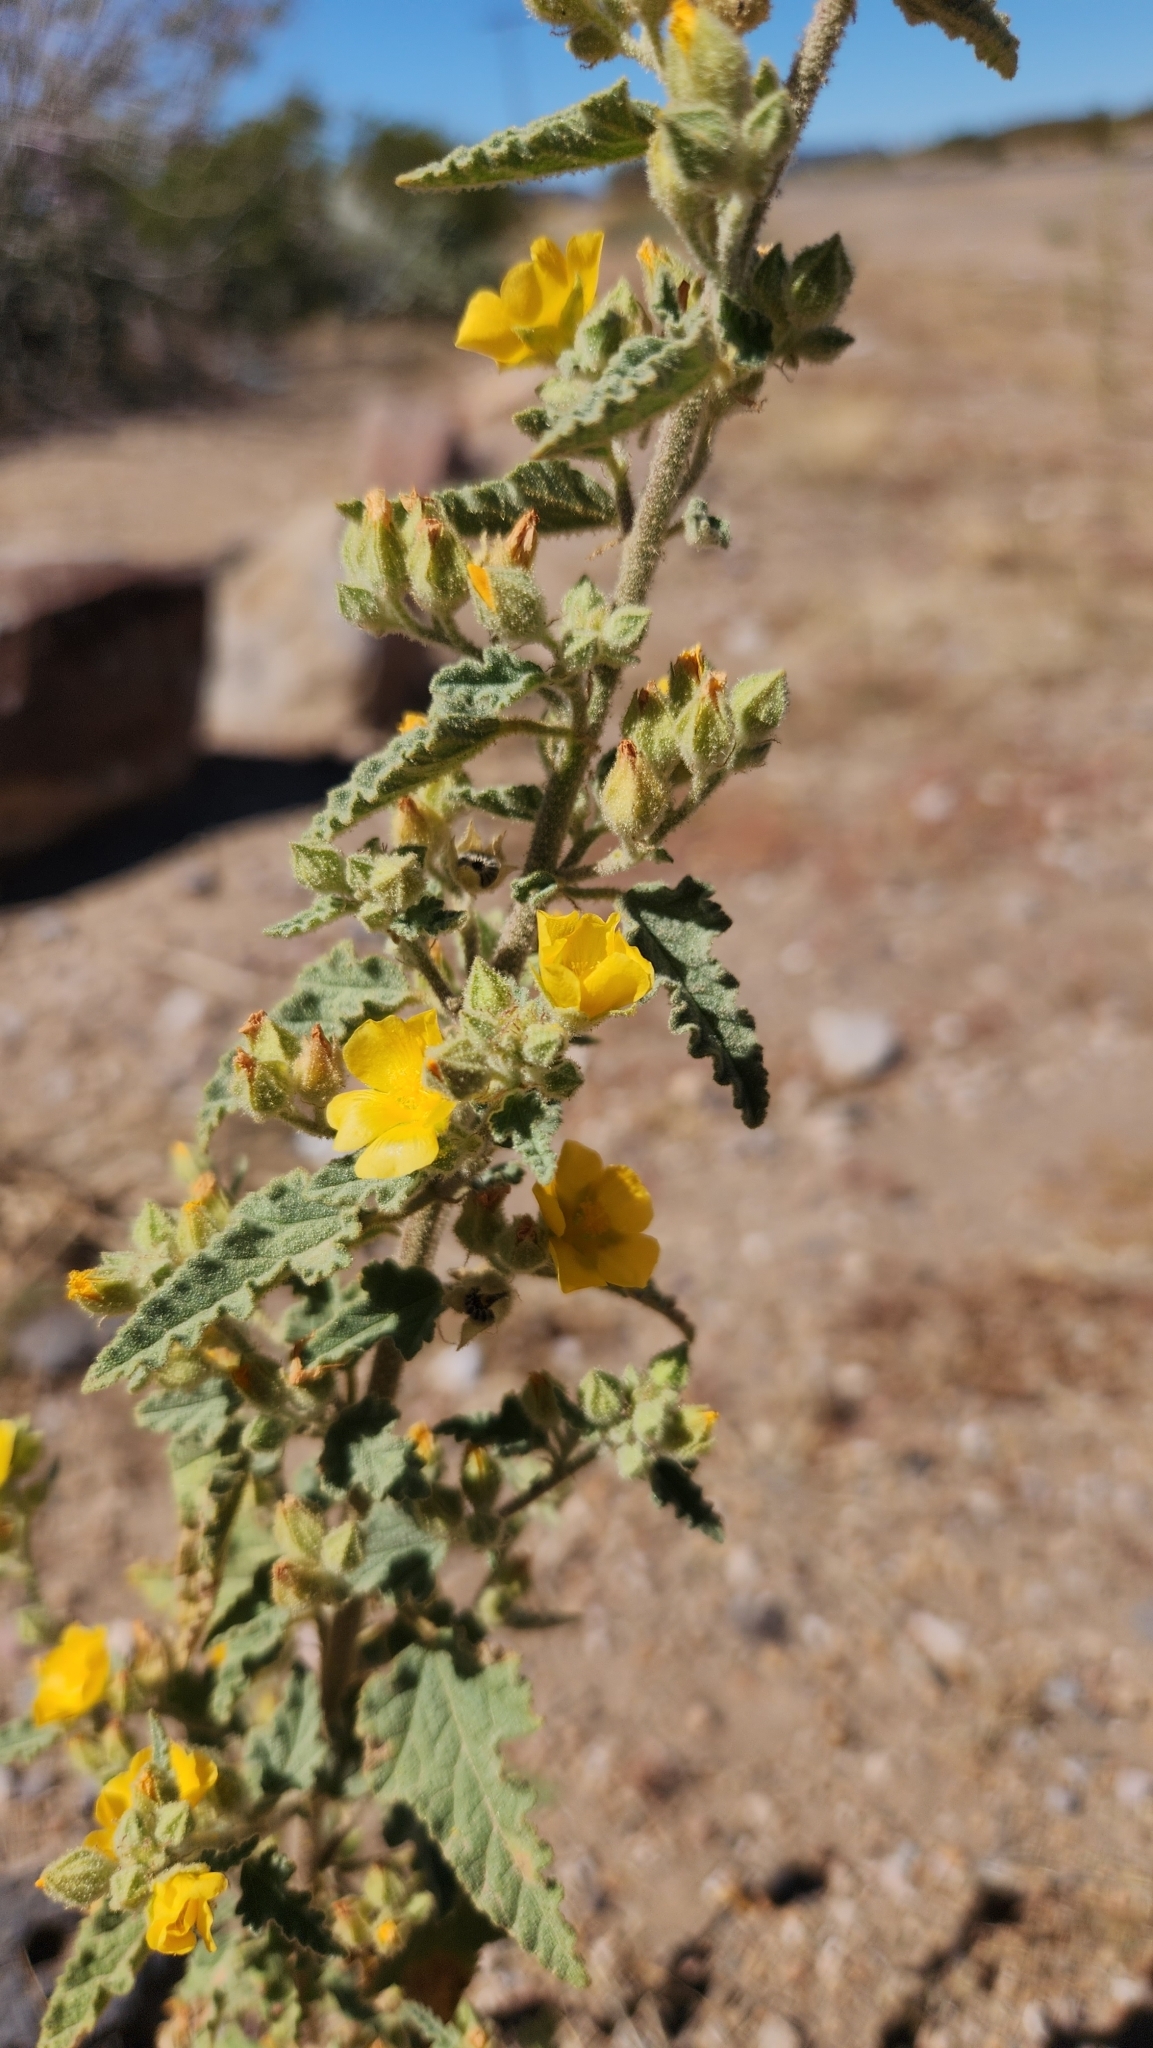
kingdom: Plantae
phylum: Tracheophyta
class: Magnoliopsida
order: Malvales
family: Malvaceae
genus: Sphaeralcea
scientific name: Sphaeralcea coulteri
